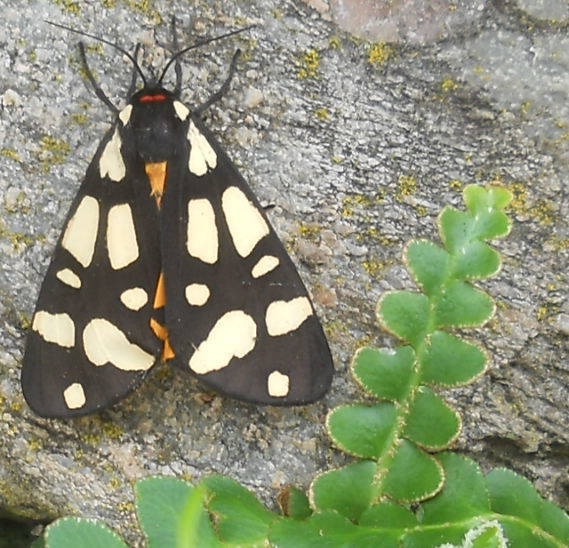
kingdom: Animalia
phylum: Arthropoda
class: Insecta
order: Lepidoptera
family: Erebidae
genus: Epicallia
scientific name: Epicallia villica
